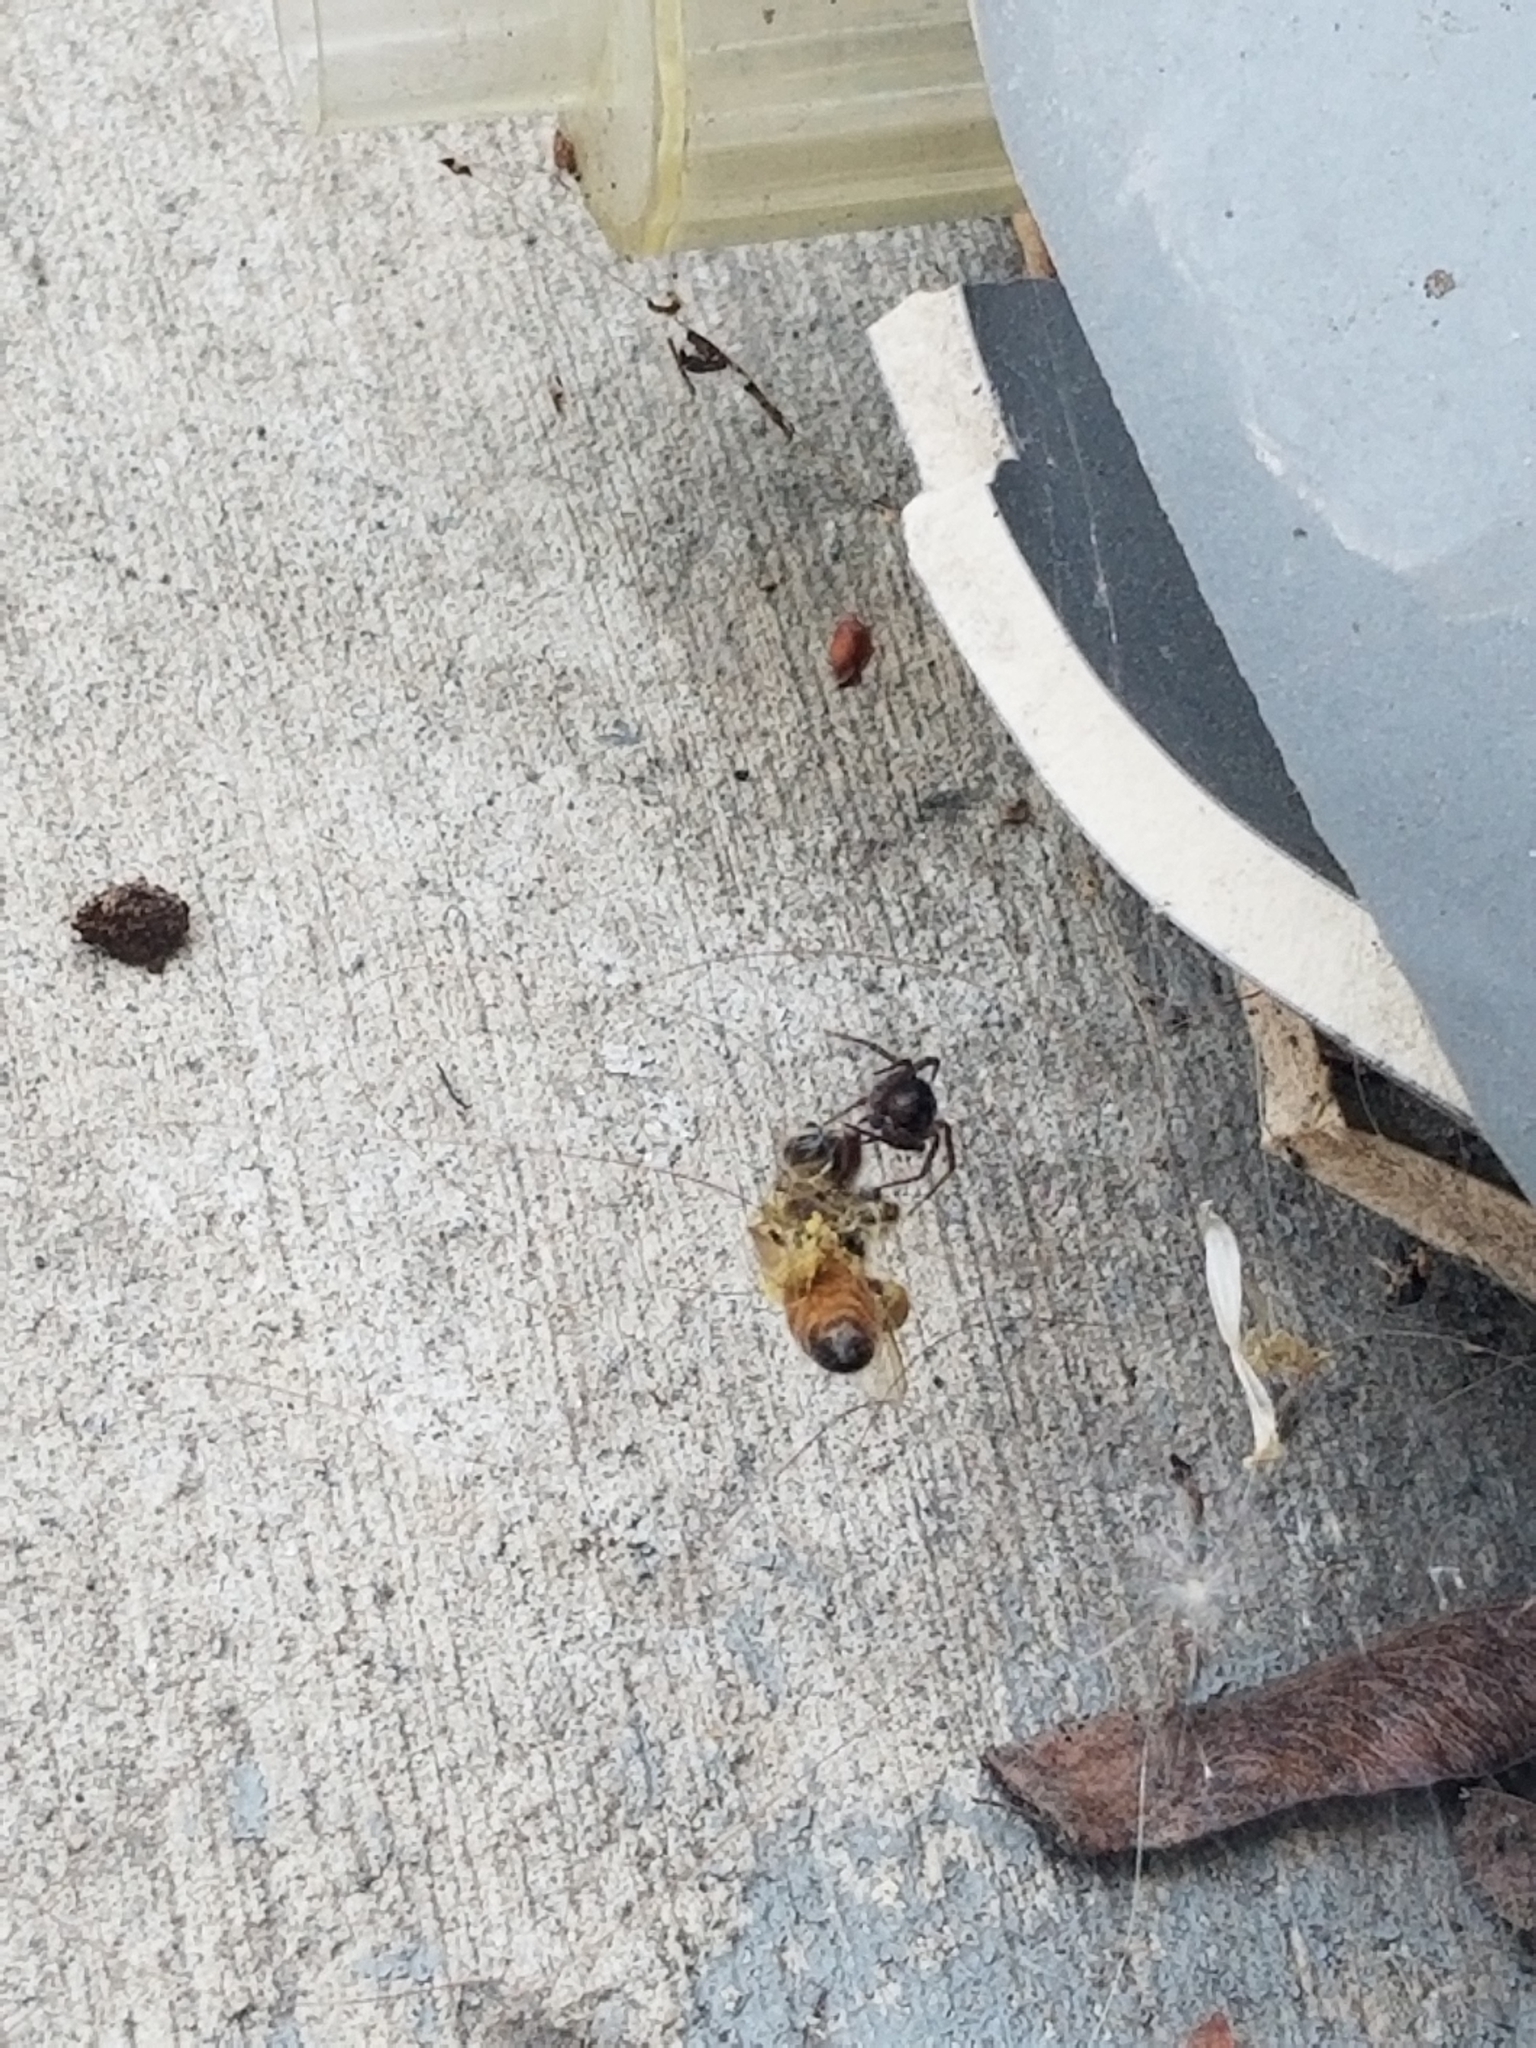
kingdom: Animalia
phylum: Arthropoda
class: Insecta
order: Hymenoptera
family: Apidae
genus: Apis
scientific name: Apis mellifera
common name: Honey bee
